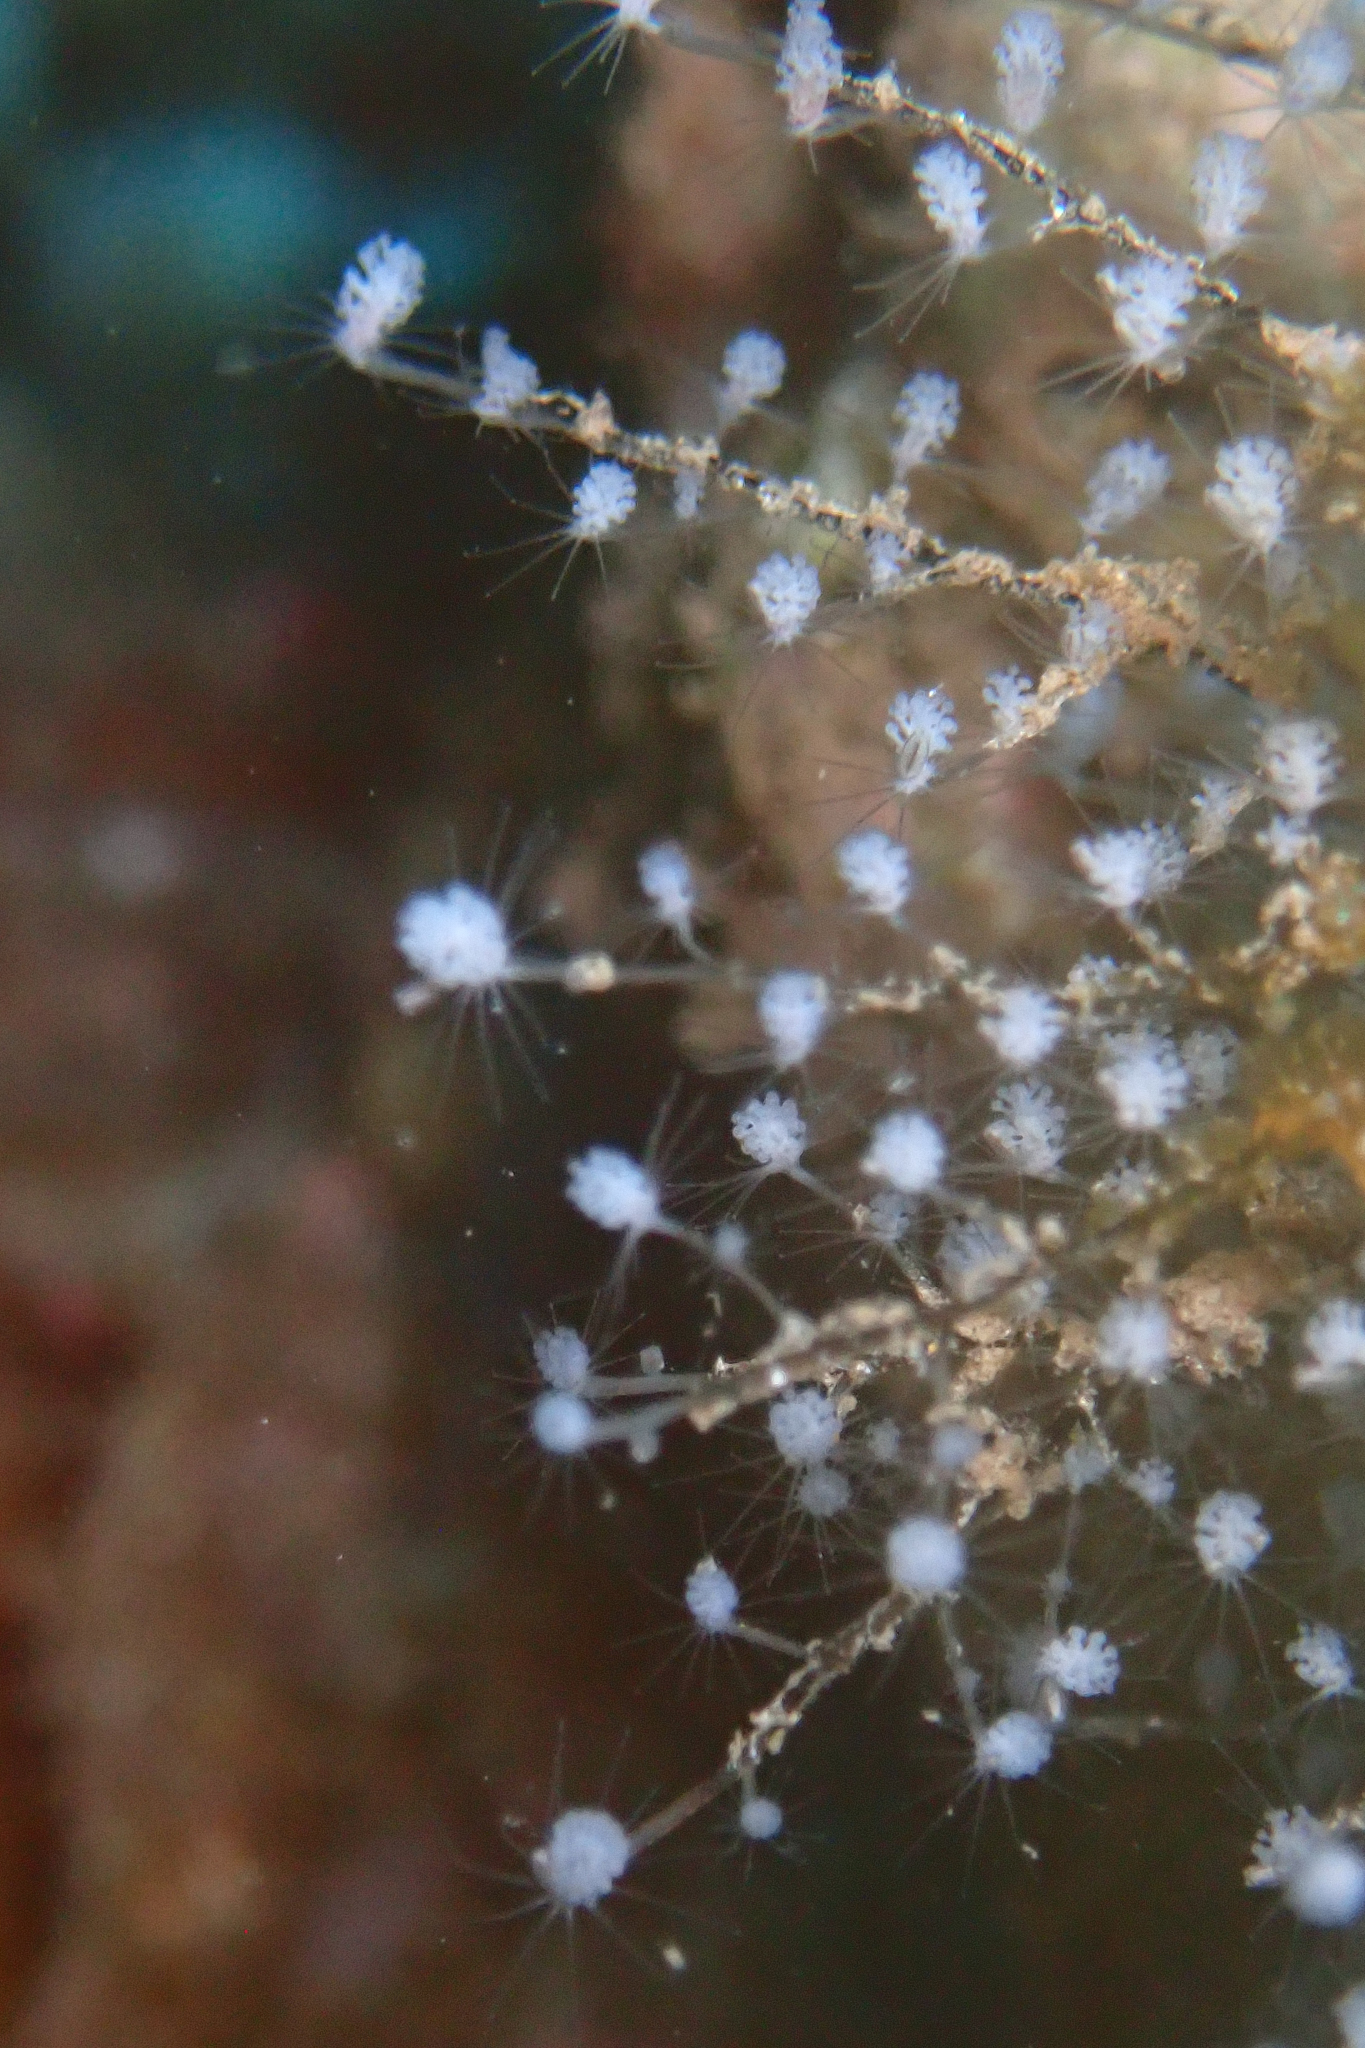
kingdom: Animalia
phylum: Cnidaria
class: Hydrozoa
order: Anthoathecata
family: Pennariidae
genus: Pennaria
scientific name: Pennaria disticha
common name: Feather hydroid
